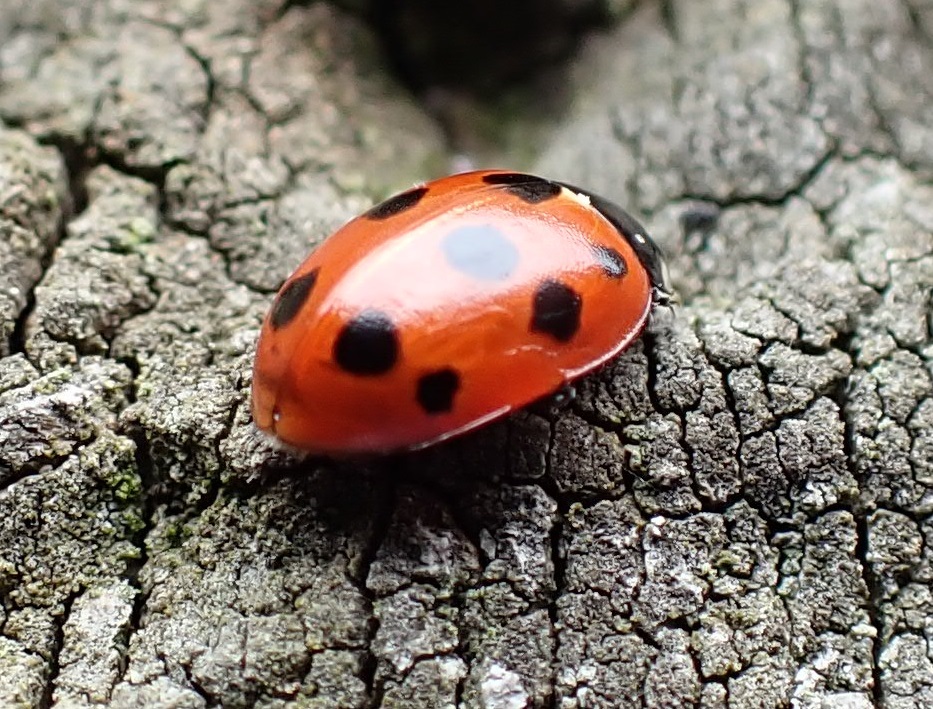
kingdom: Animalia
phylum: Arthropoda
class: Insecta
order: Coleoptera
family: Coccinellidae
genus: Coccinella
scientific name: Coccinella undecimpunctata
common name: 11-spot ladybird
